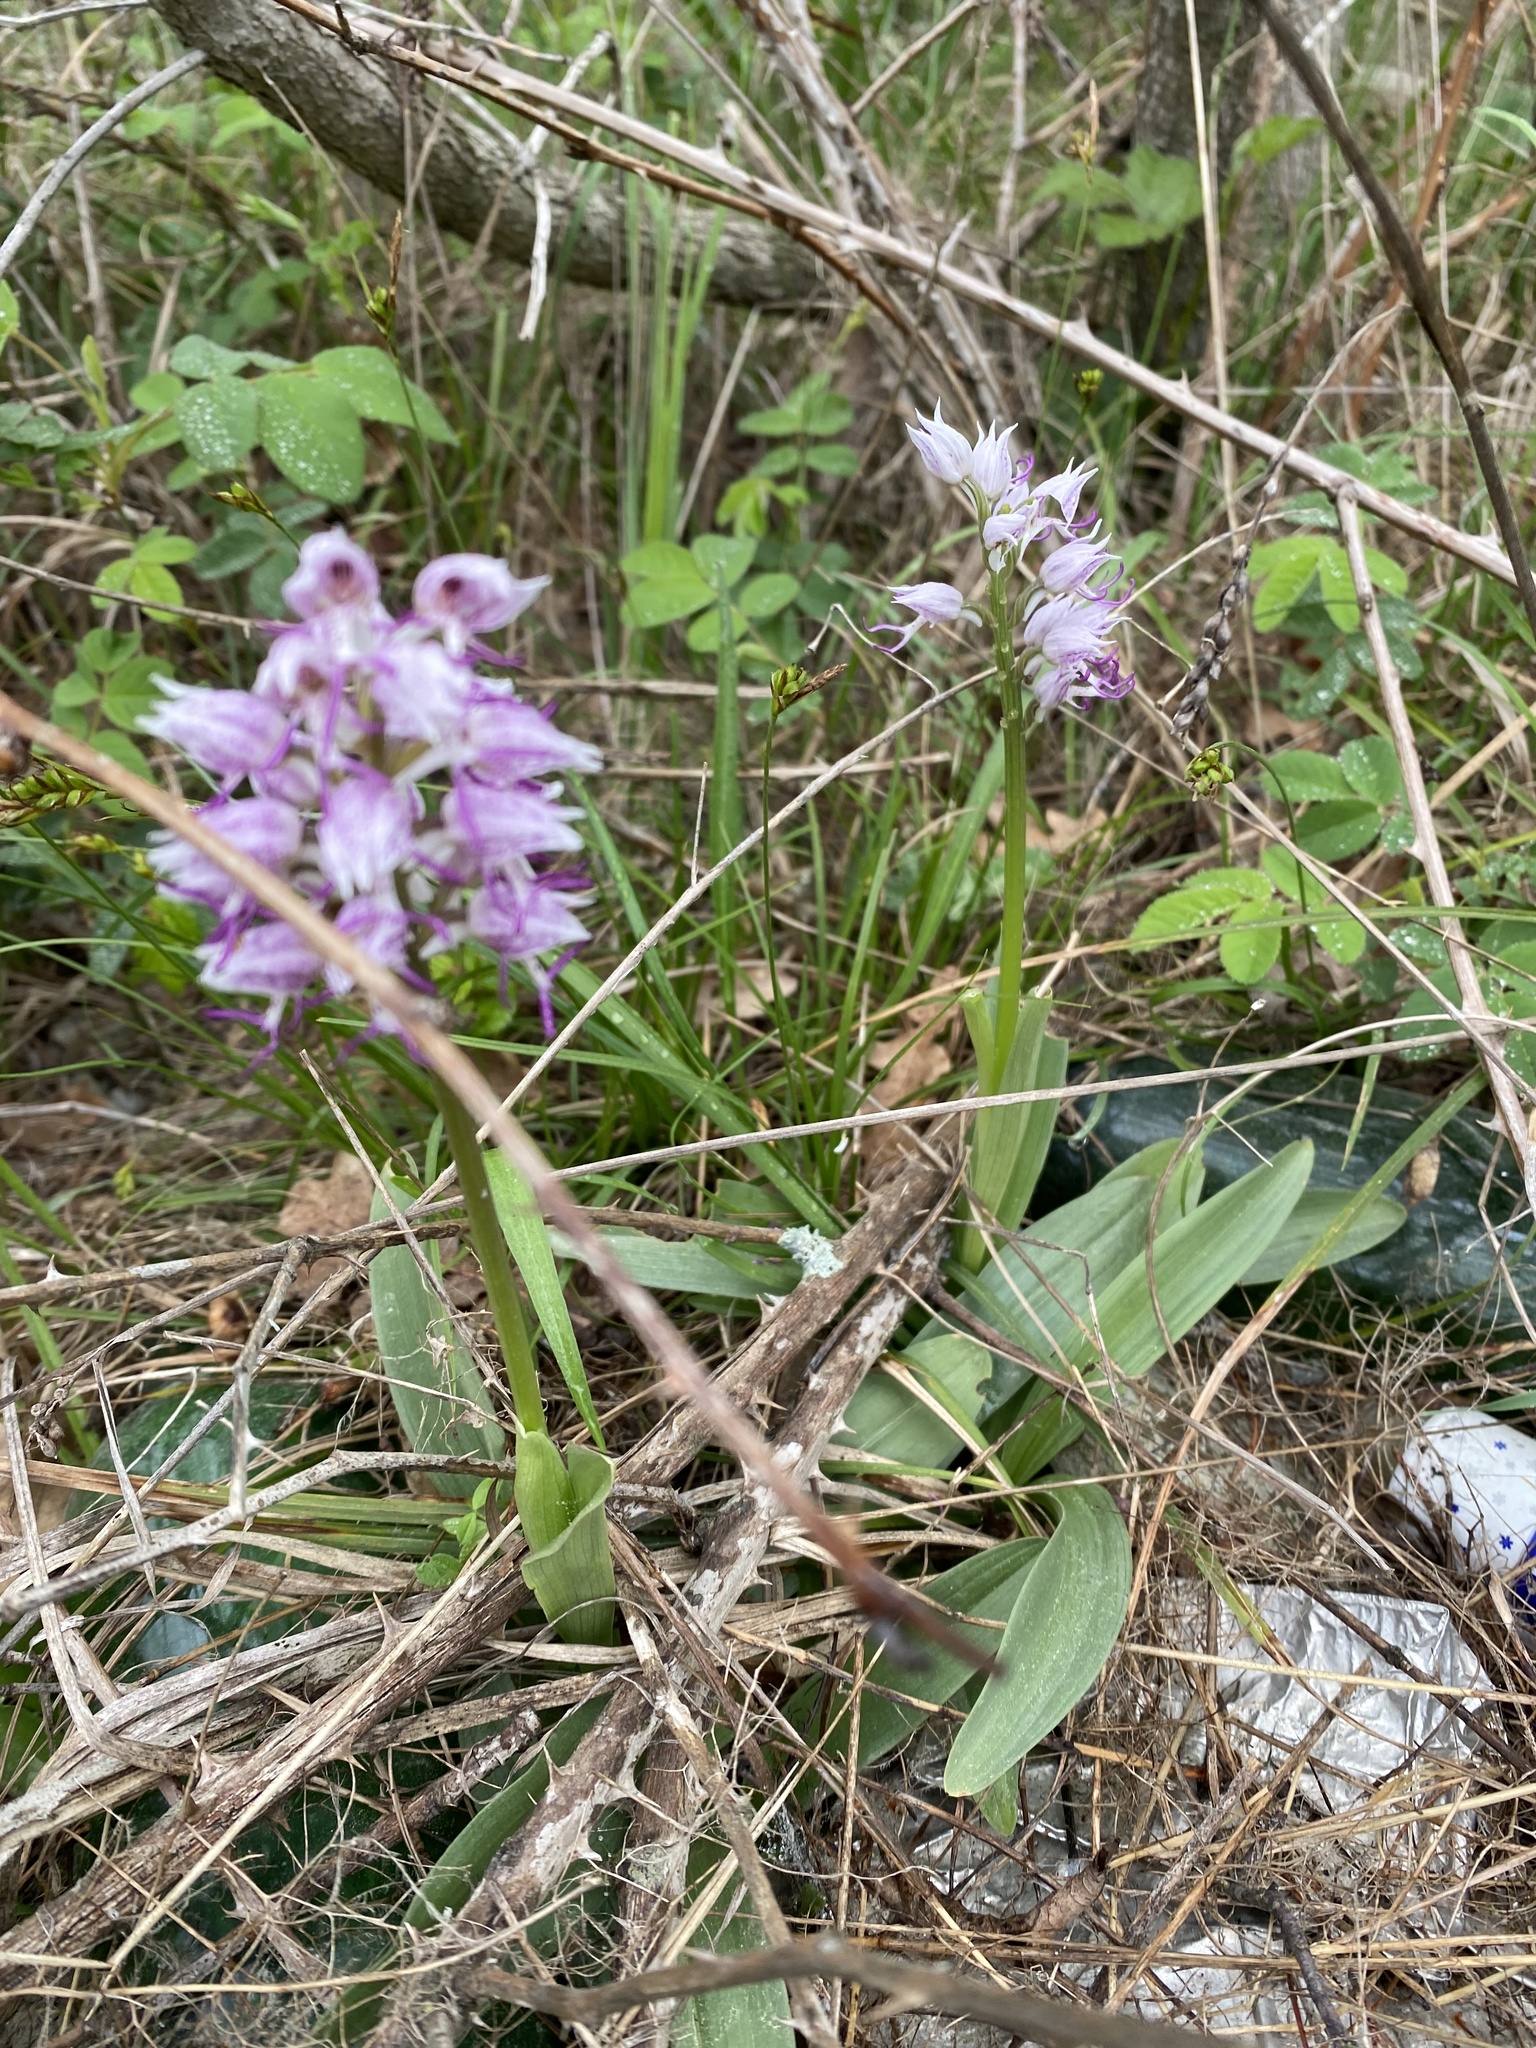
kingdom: Plantae
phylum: Tracheophyta
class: Liliopsida
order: Asparagales
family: Orchidaceae
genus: Orchis
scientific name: Orchis simia
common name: Monkey orchid
